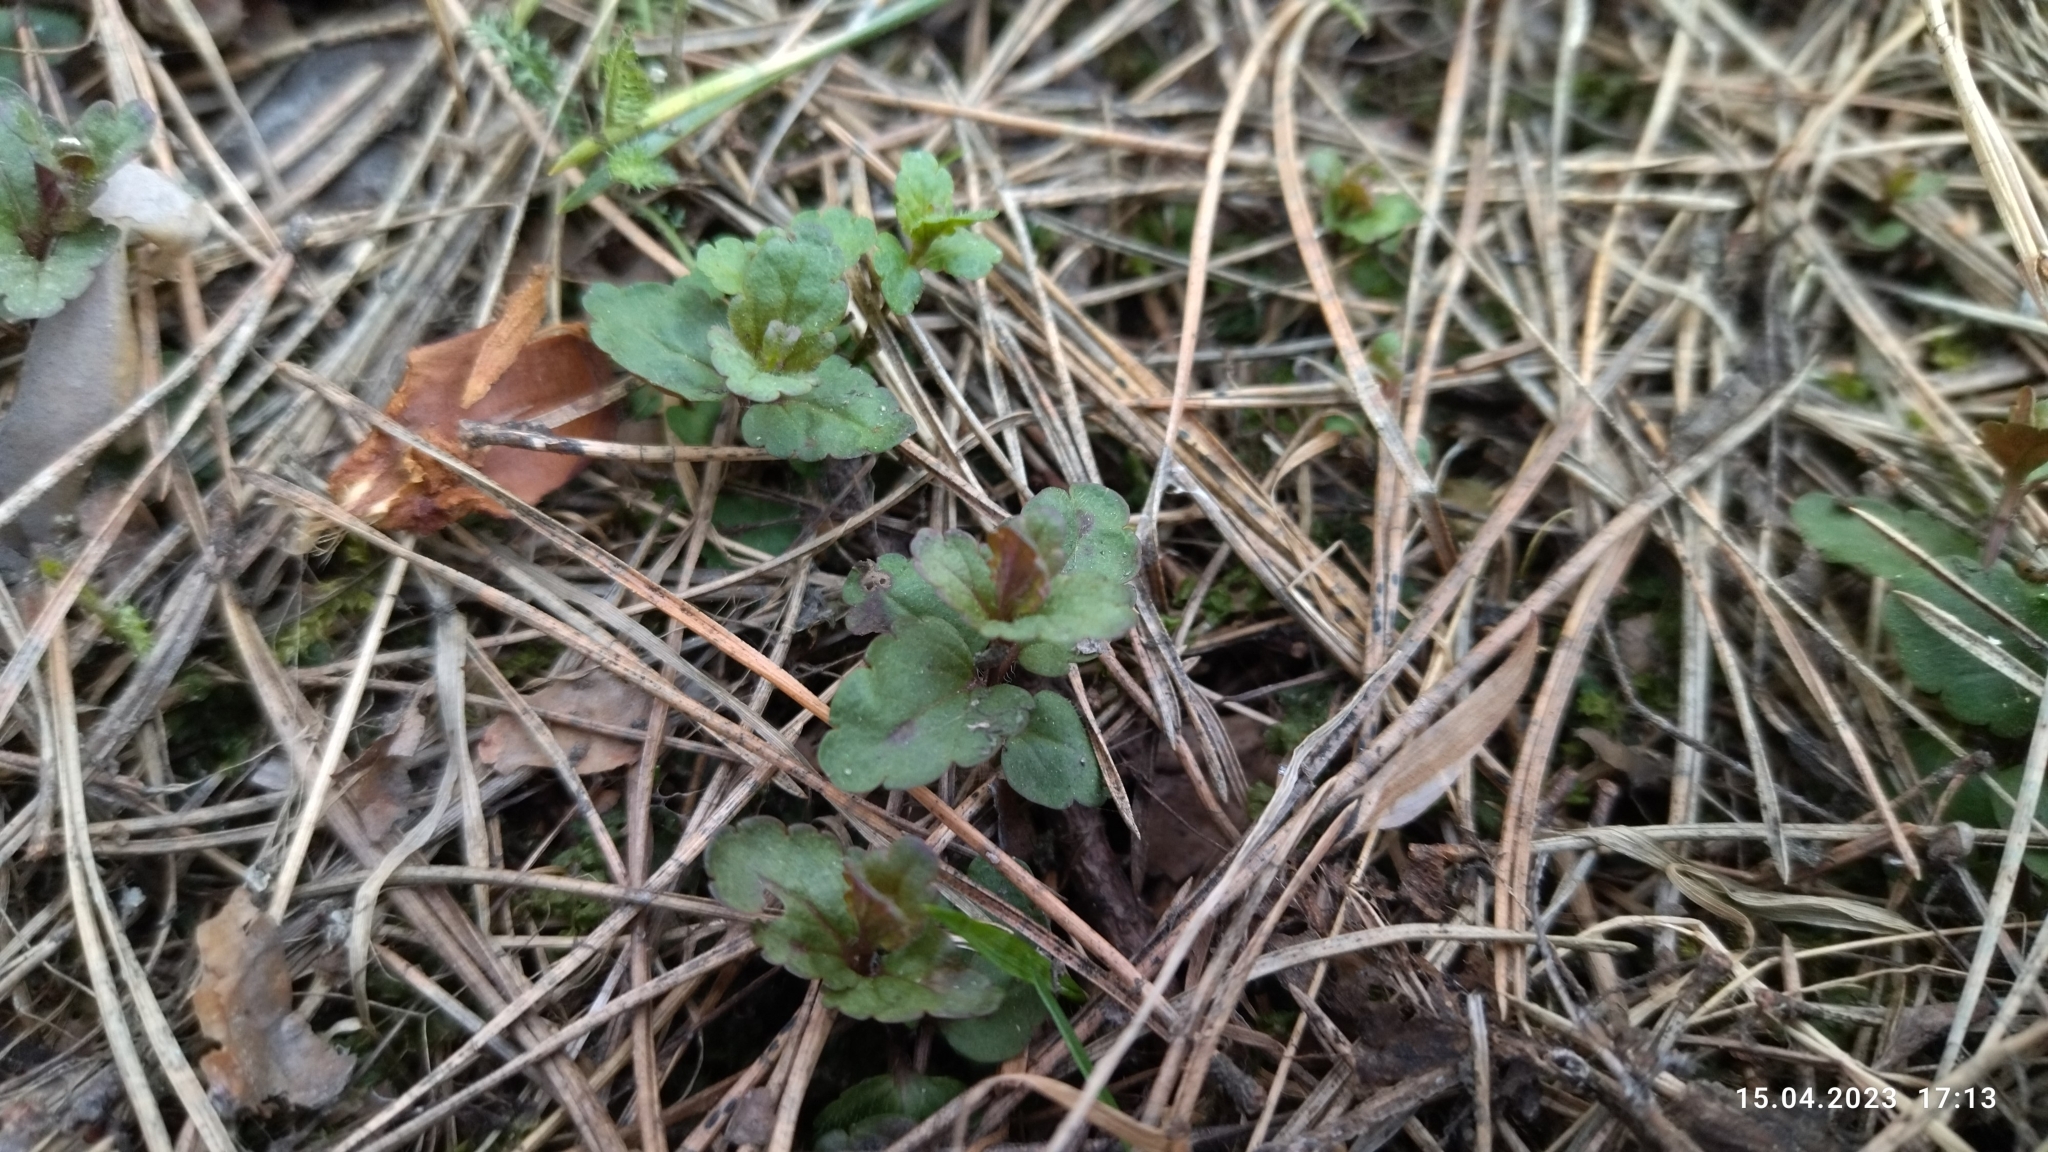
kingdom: Plantae
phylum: Tracheophyta
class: Magnoliopsida
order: Lamiales
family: Plantaginaceae
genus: Veronica
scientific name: Veronica chamaedrys
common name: Germander speedwell
